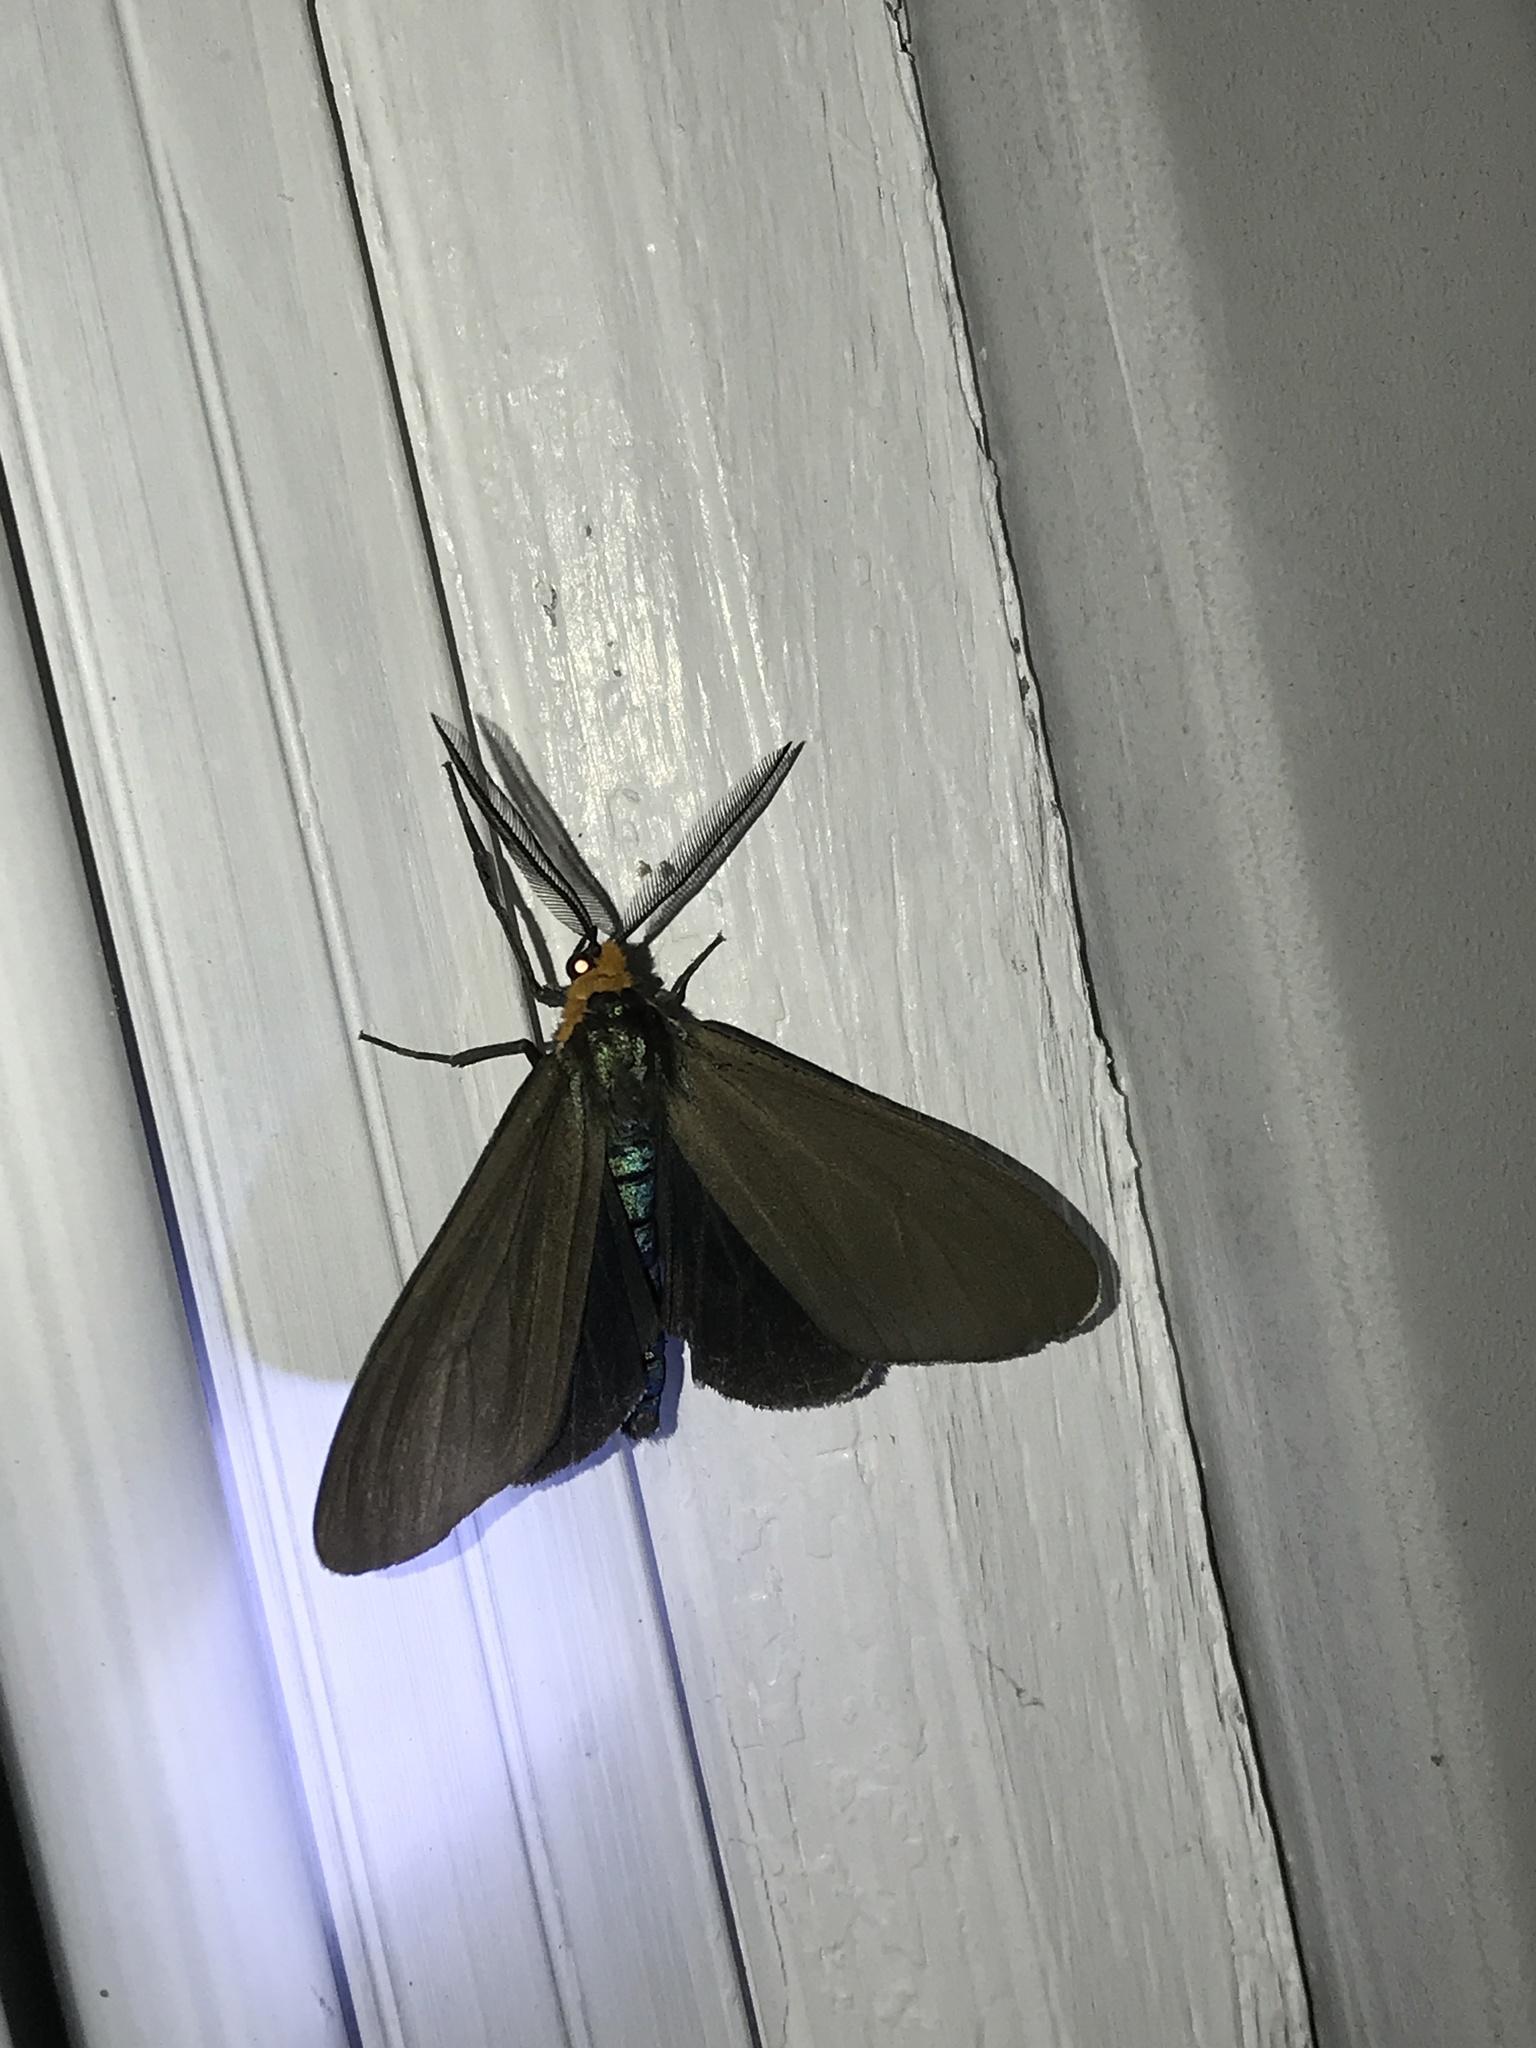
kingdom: Animalia
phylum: Arthropoda
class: Insecta
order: Lepidoptera
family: Erebidae
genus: Ctenucha
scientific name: Ctenucha virginica
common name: Virginia ctenucha moth
